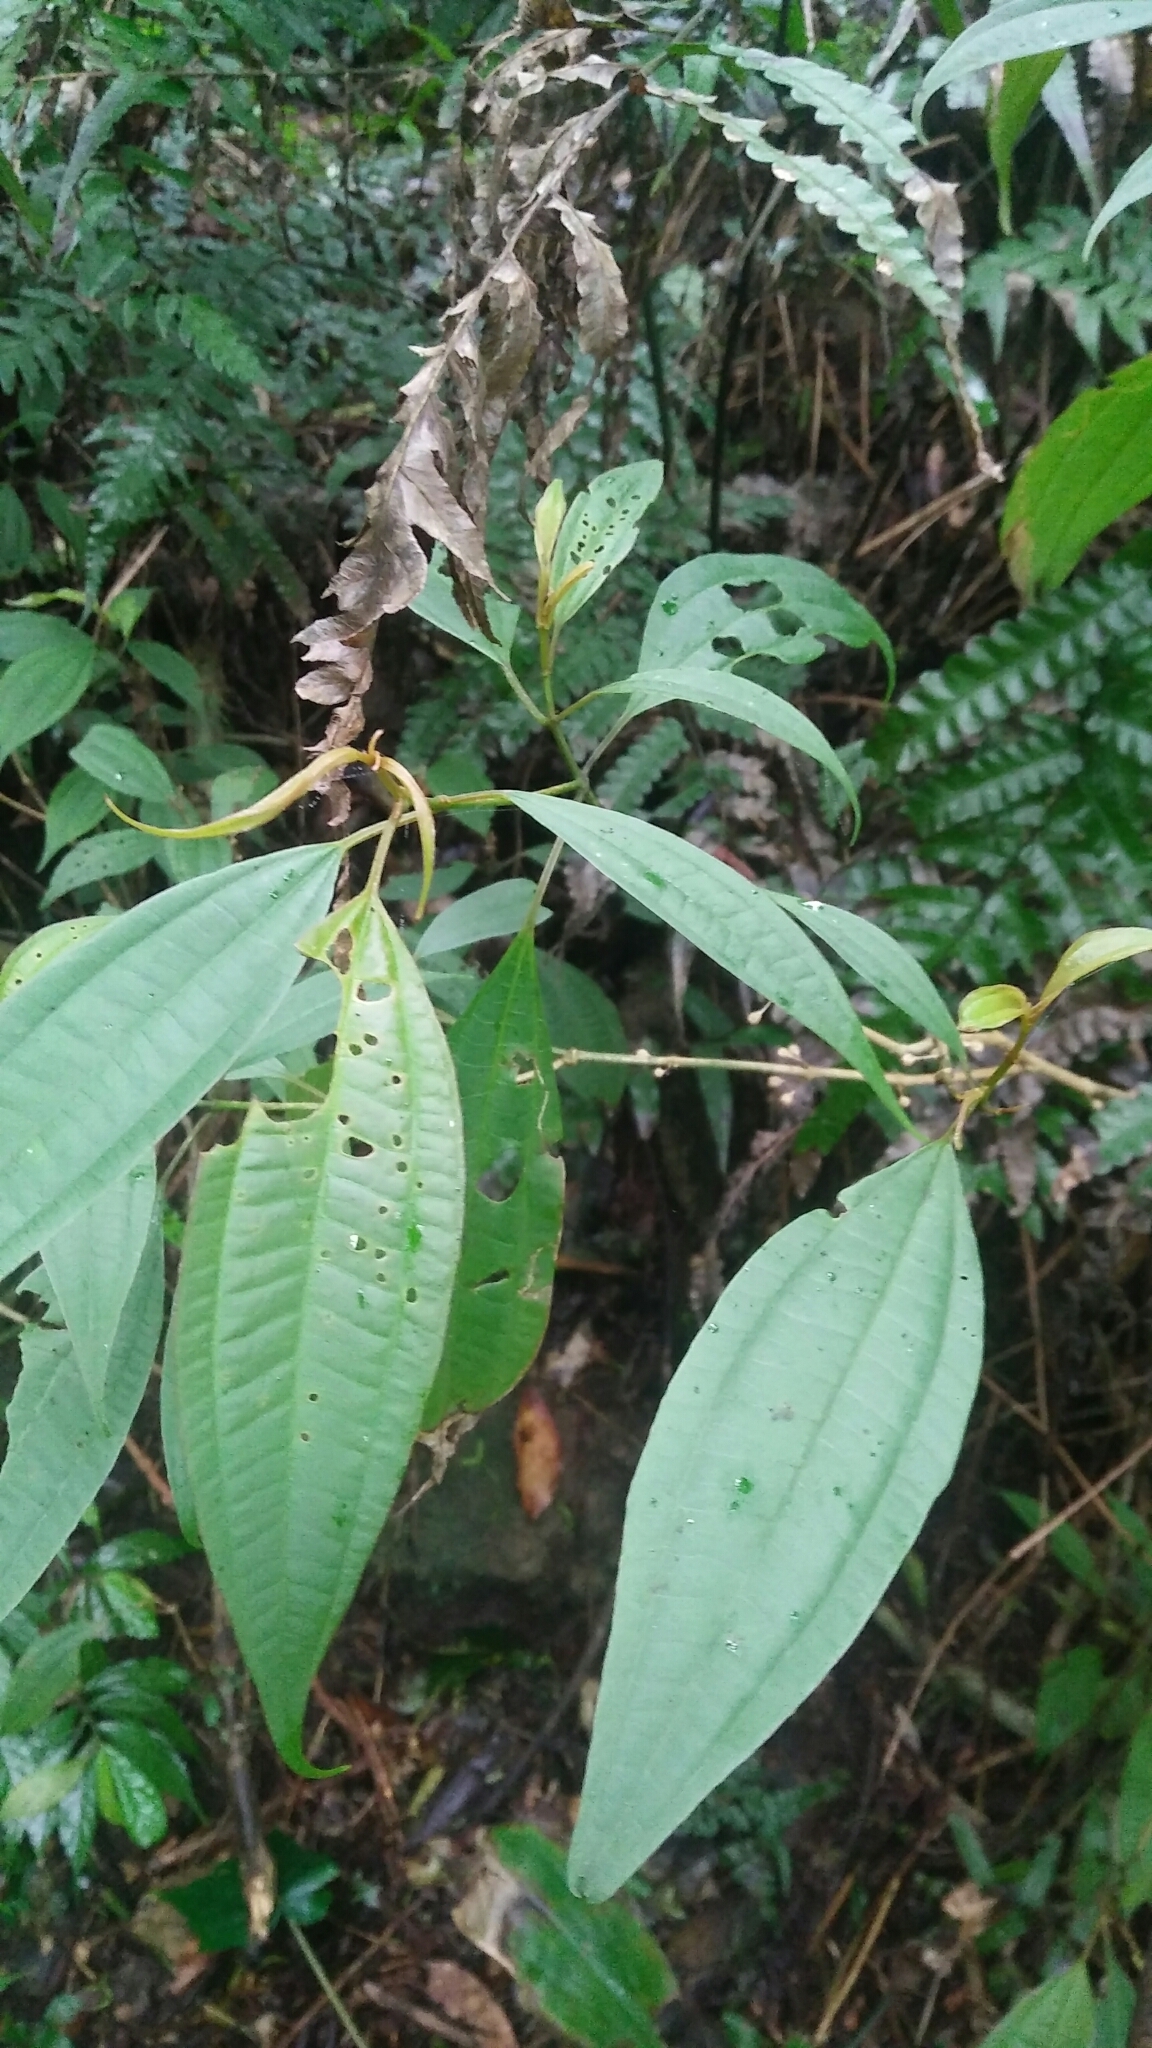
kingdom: Plantae
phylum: Tracheophyta
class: Magnoliopsida
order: Myrtales
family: Melastomataceae
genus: Blastus
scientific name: Blastus cochinchinensis
